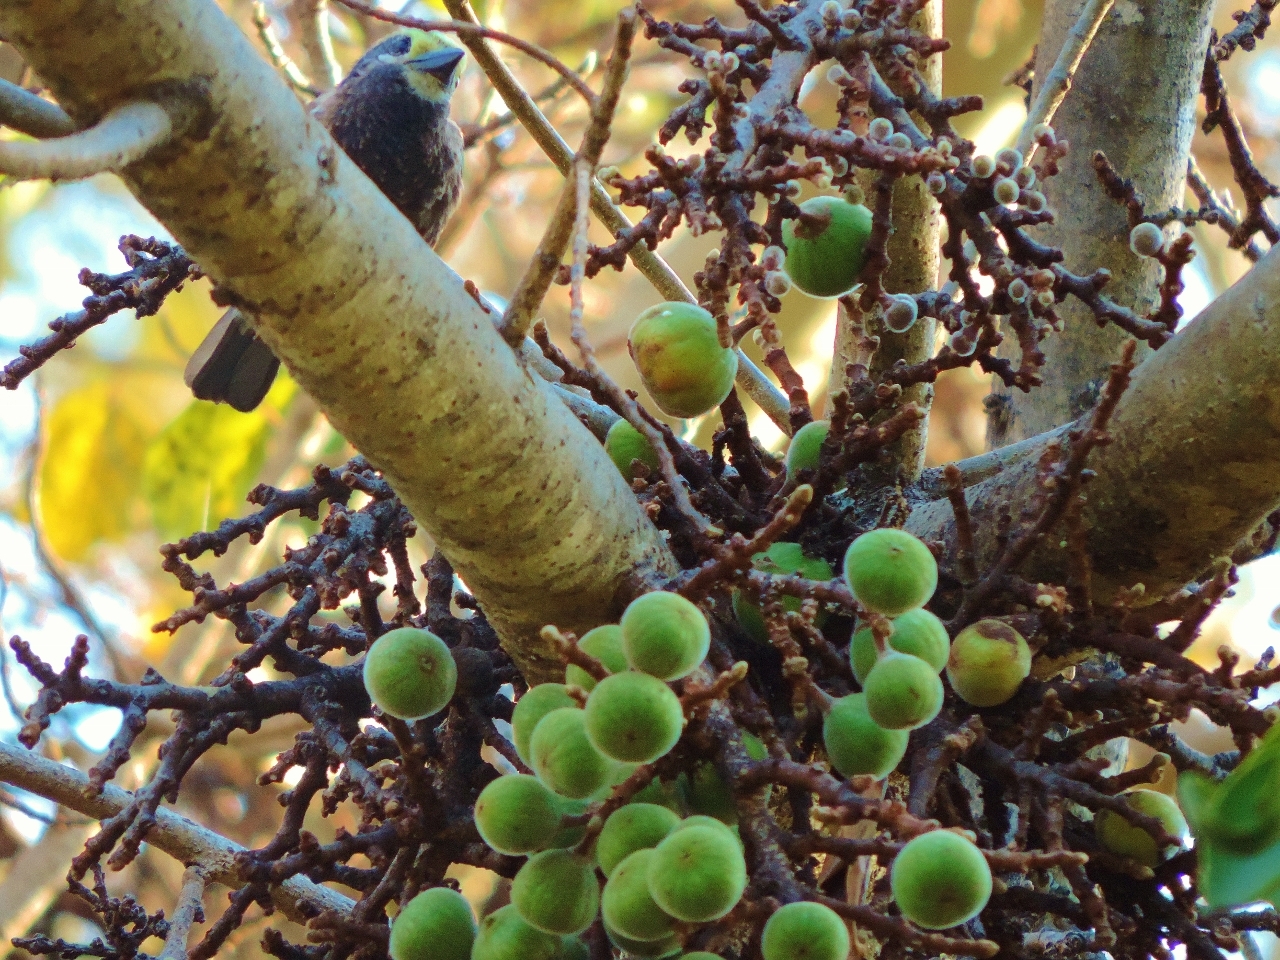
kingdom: Animalia
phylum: Chordata
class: Aves
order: Piciformes
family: Lybiidae
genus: Stactolaema
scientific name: Stactolaema whytii
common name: Whyte's barbet
